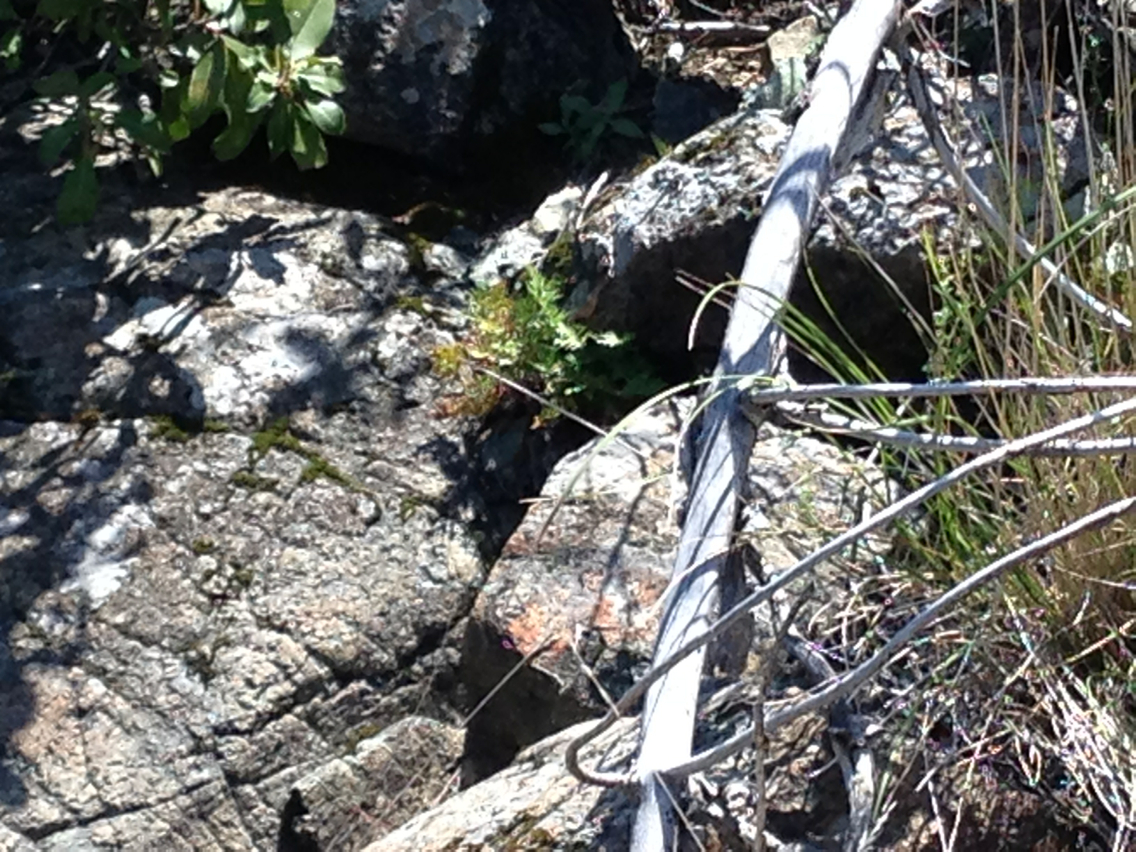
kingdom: Plantae
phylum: Tracheophyta
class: Polypodiopsida
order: Polypodiales
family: Pteridaceae
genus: Aspidotis
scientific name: Aspidotis densa
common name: Indian's dream
